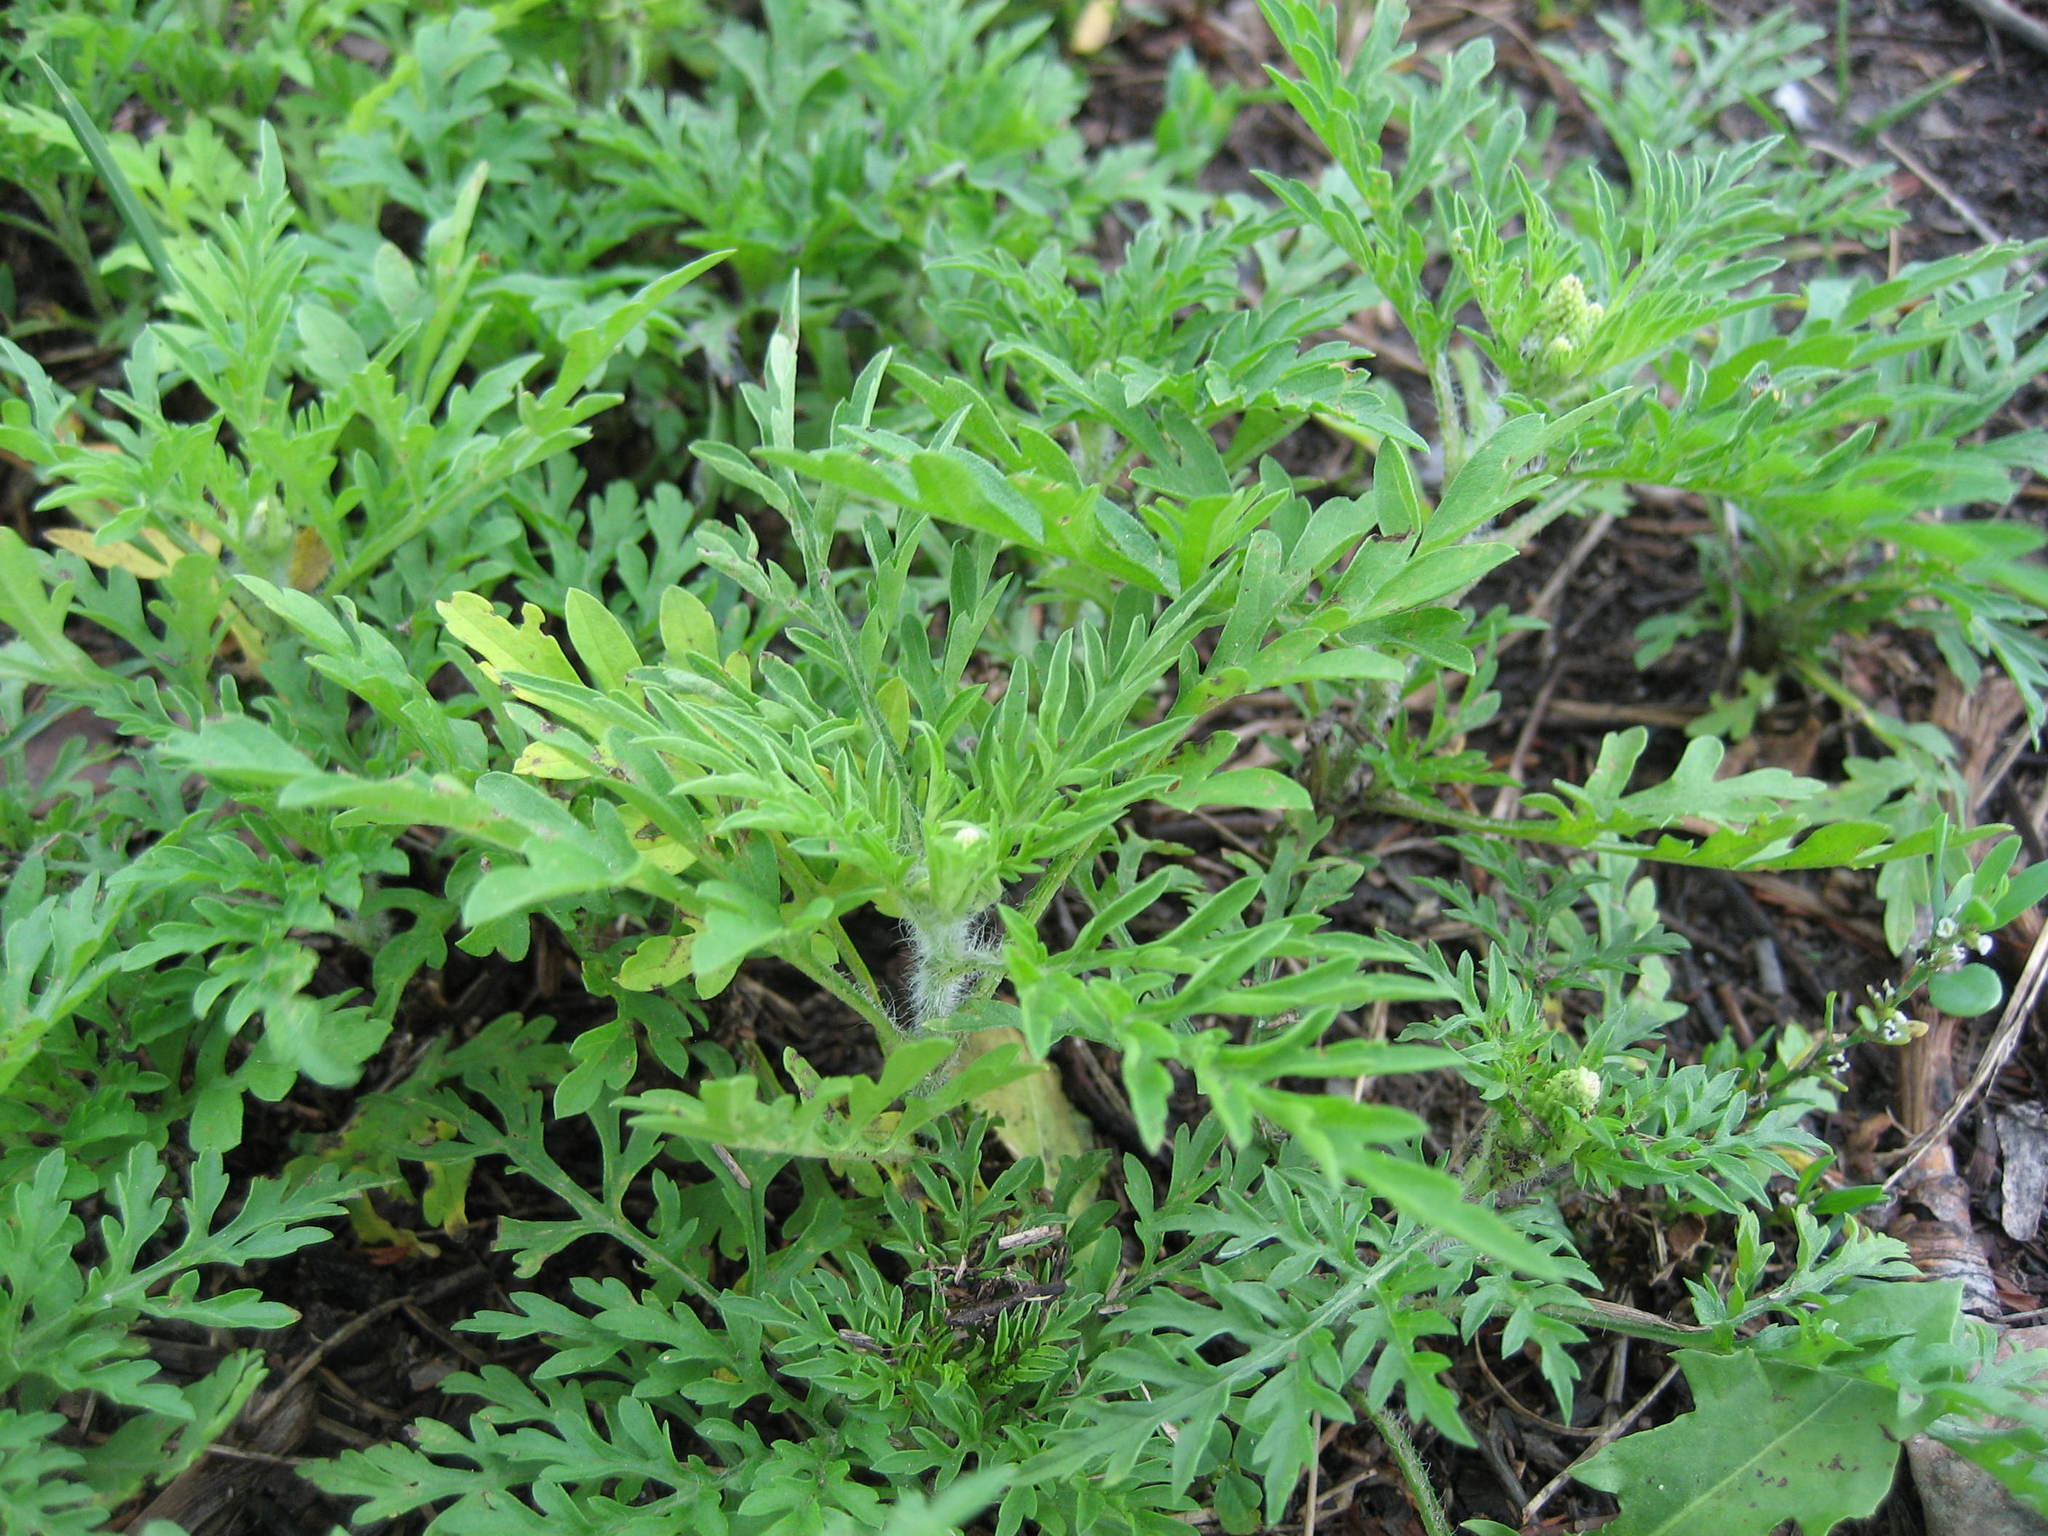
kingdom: Plantae
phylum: Tracheophyta
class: Magnoliopsida
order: Asterales
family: Asteraceae
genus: Ambrosia
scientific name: Ambrosia artemisiifolia
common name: Annual ragweed
